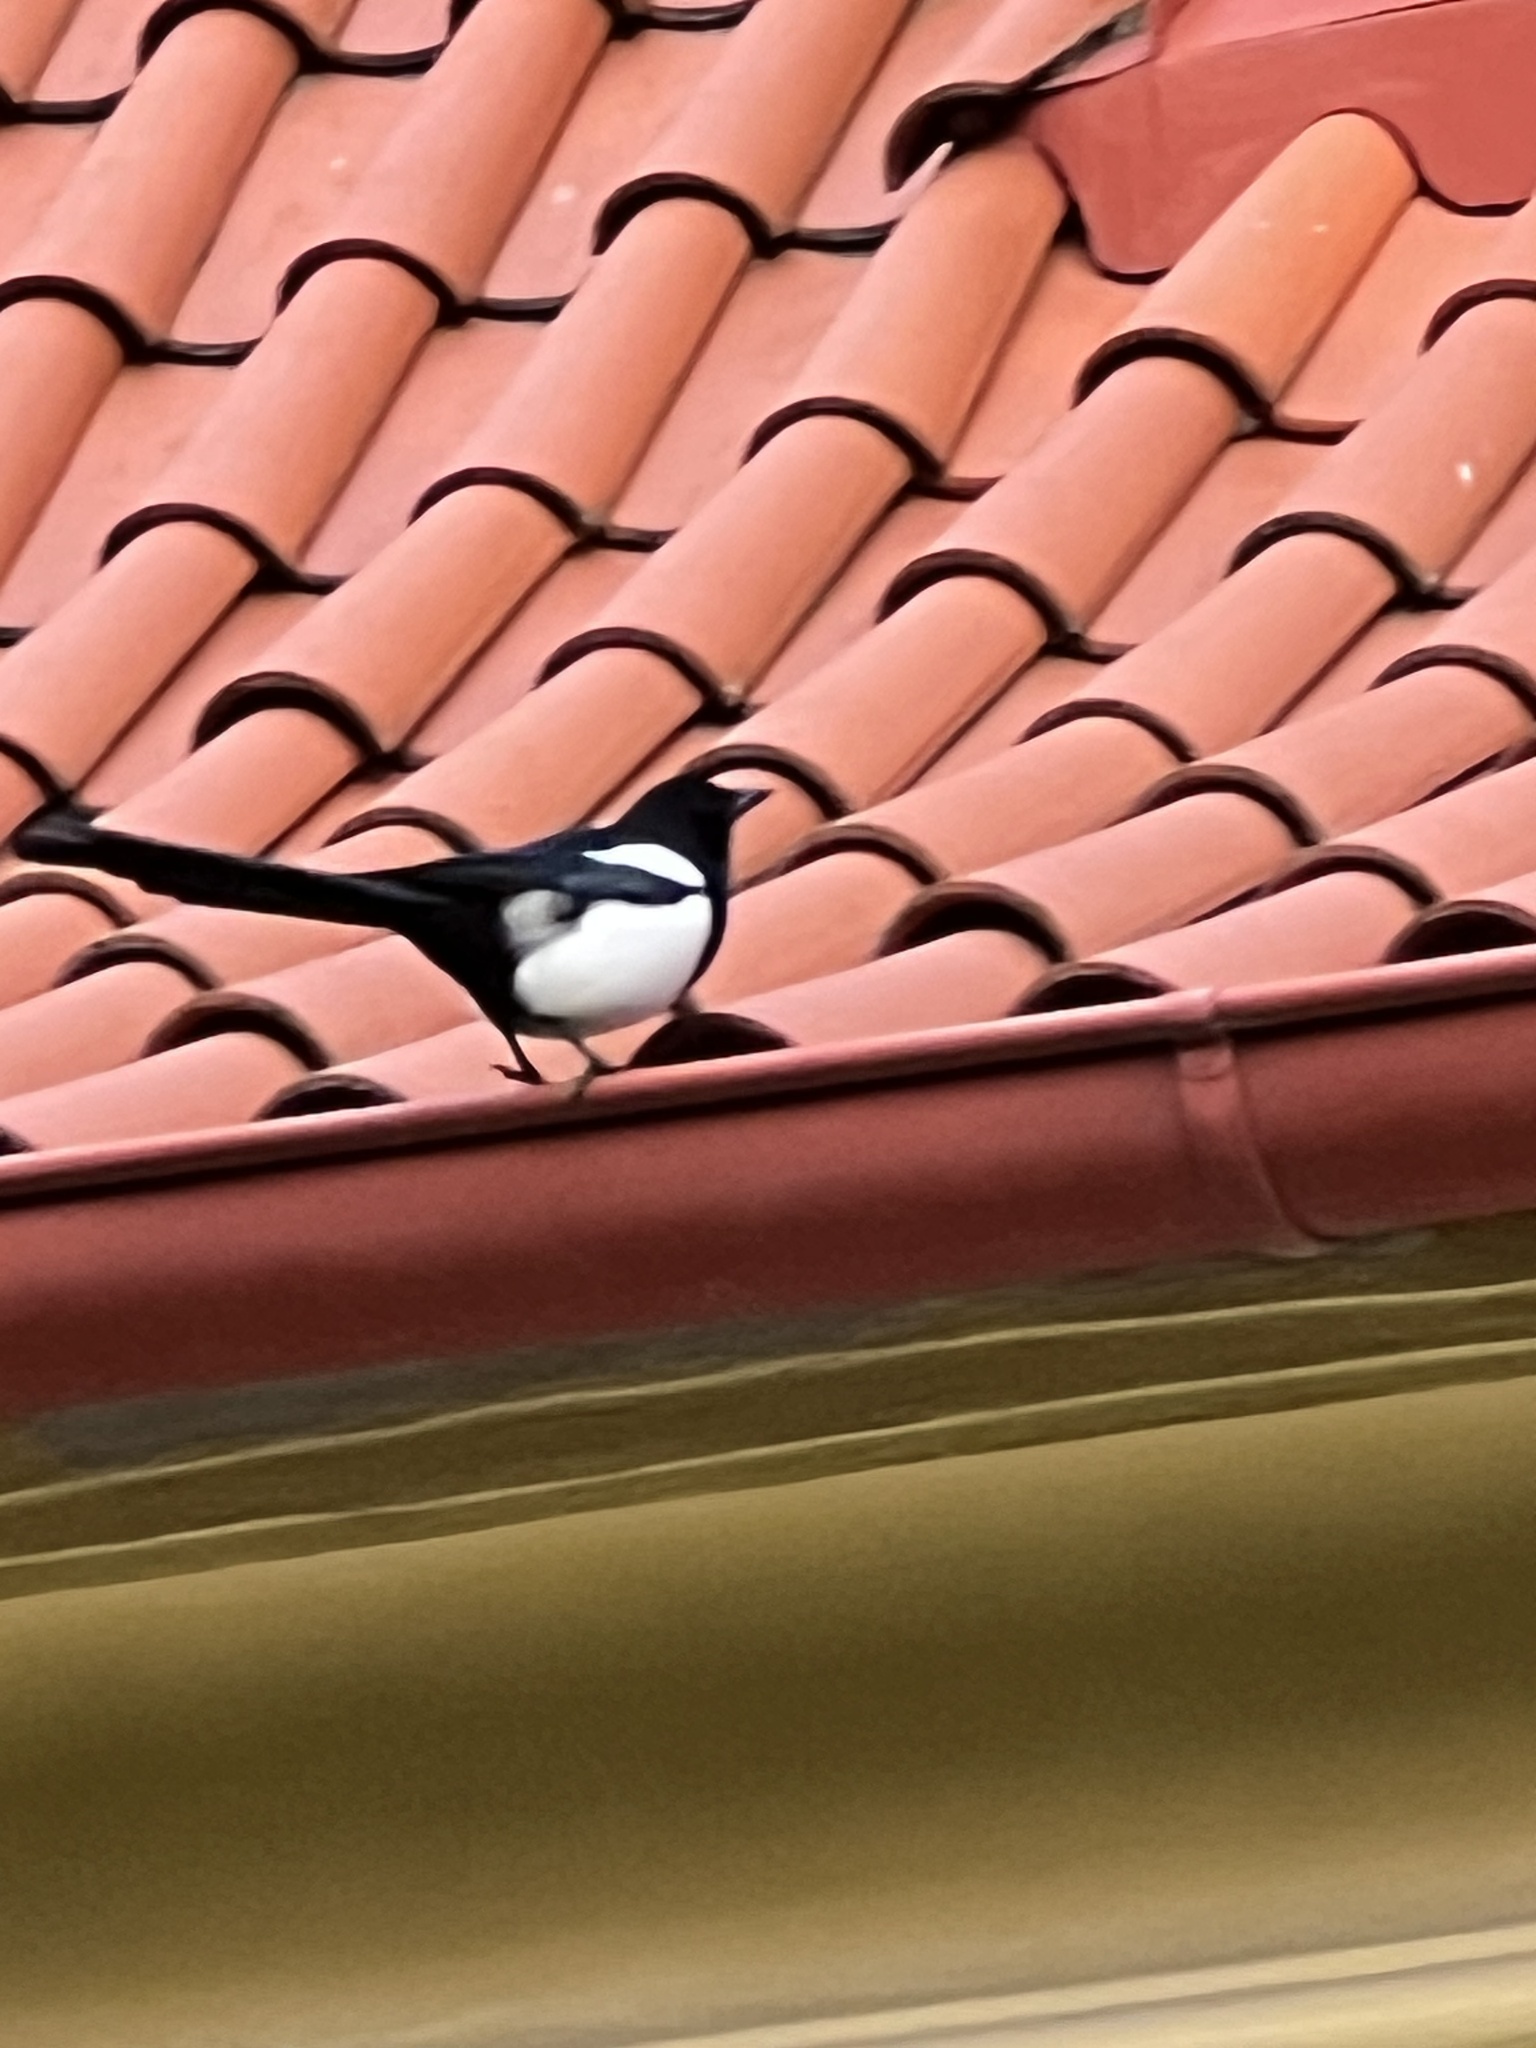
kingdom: Animalia
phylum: Chordata
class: Aves
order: Passeriformes
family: Corvidae
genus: Pica
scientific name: Pica pica
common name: Eurasian magpie
